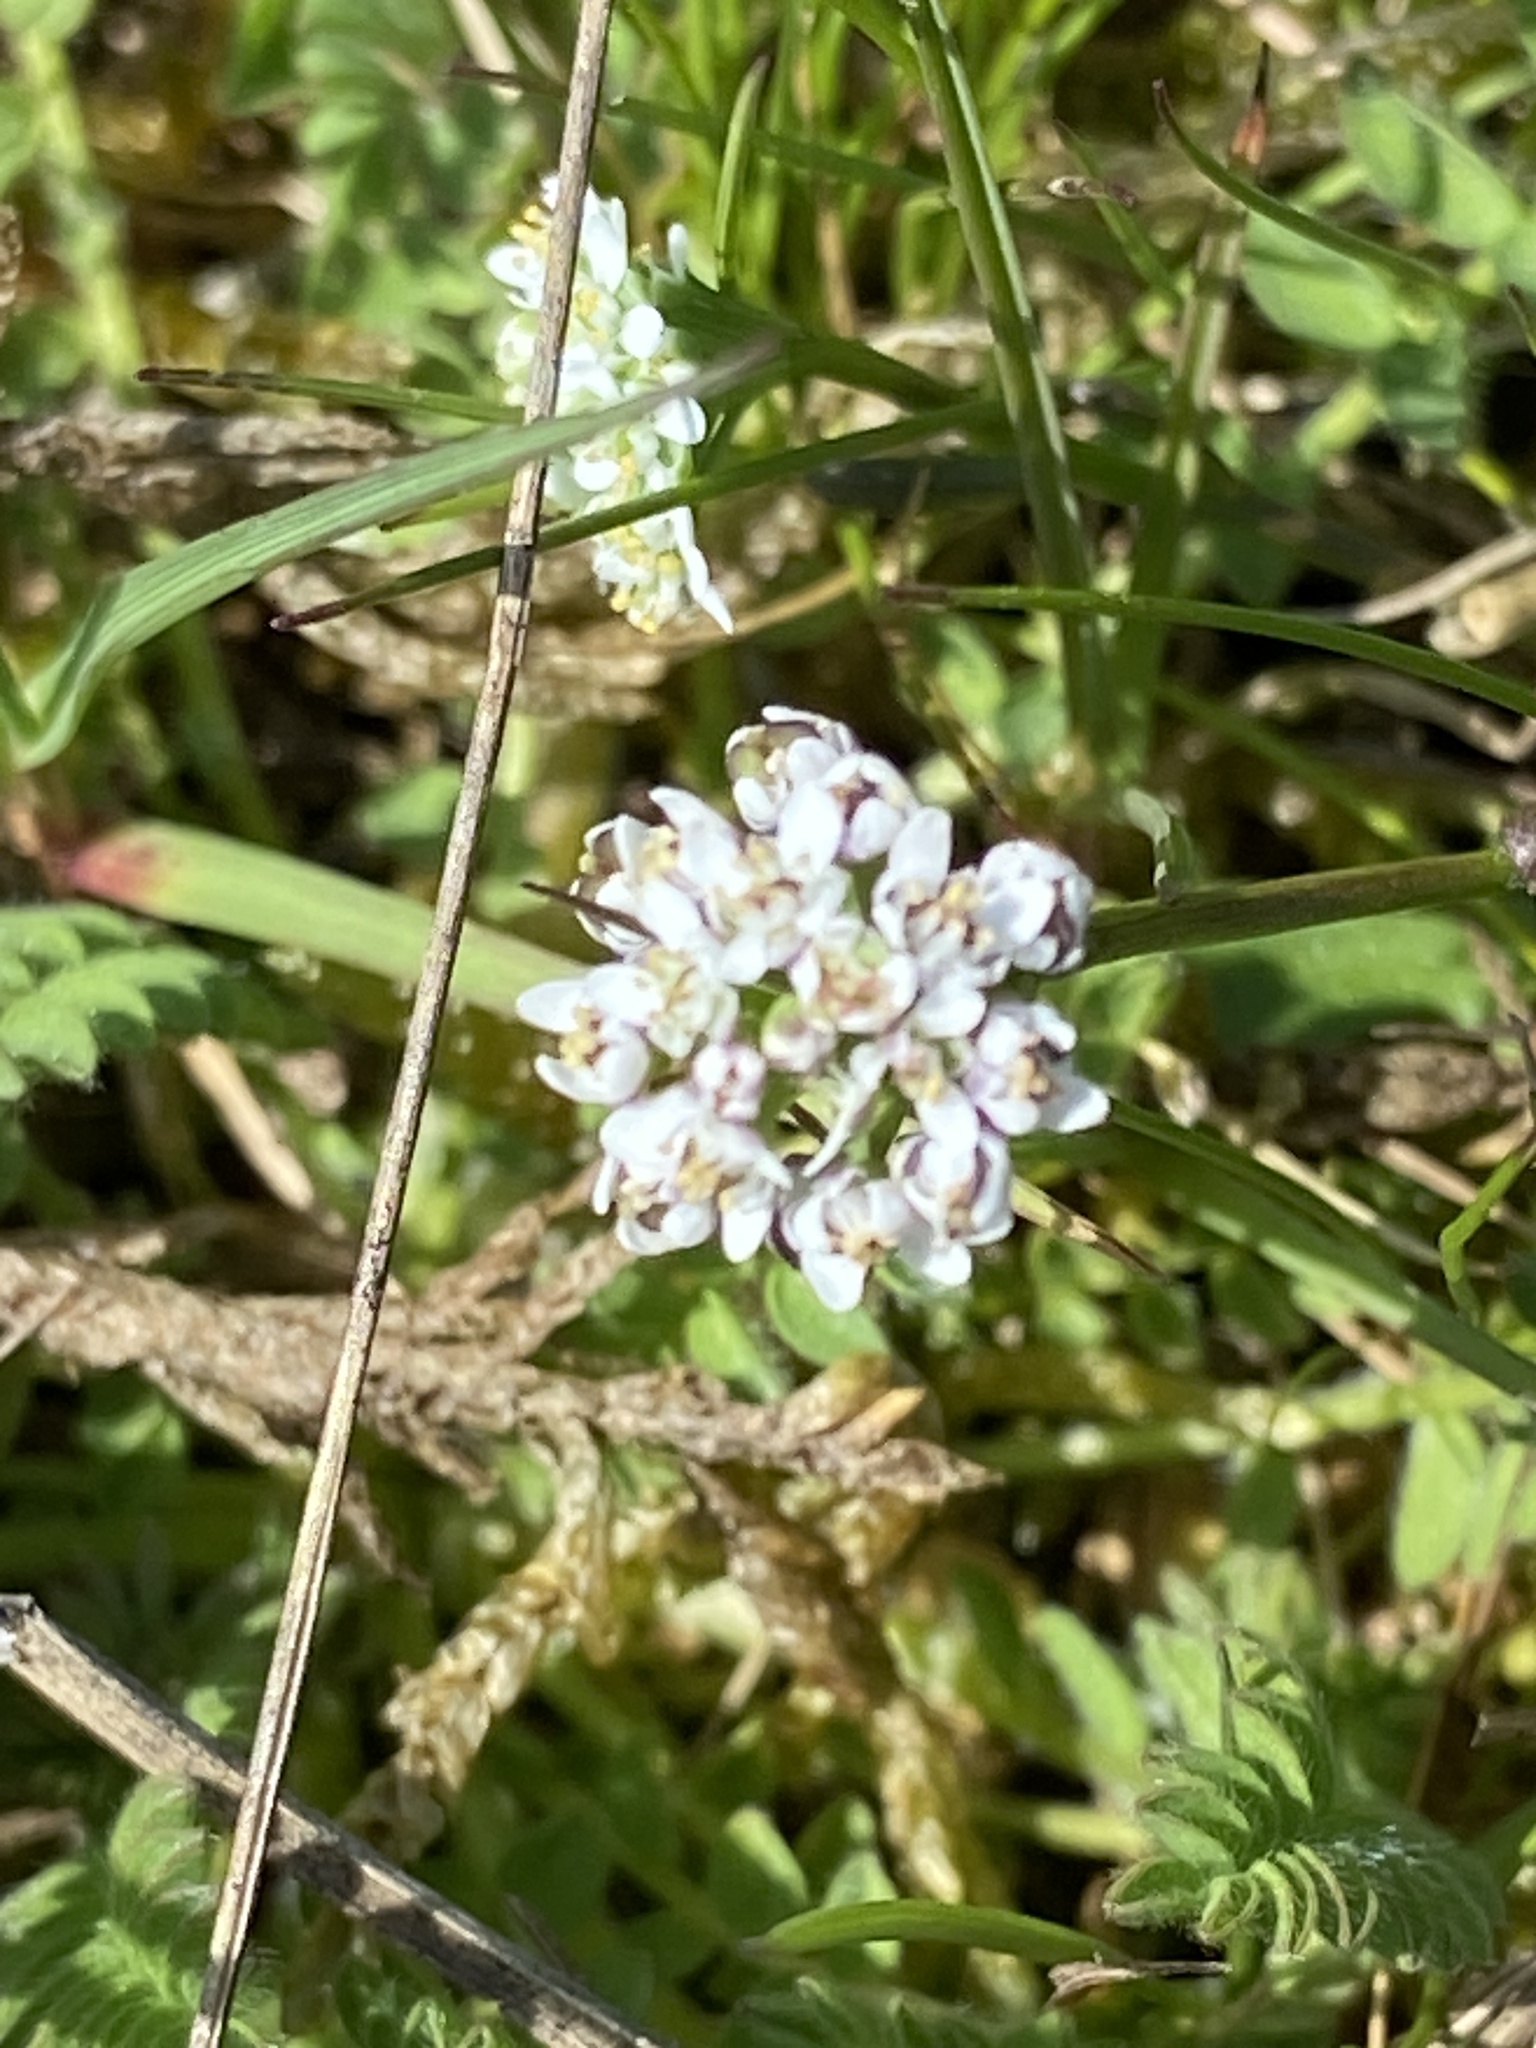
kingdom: Plantae
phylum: Tracheophyta
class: Magnoliopsida
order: Brassicales
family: Brassicaceae
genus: Teesdalia
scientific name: Teesdalia nudicaulis
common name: Shepherd's cress
